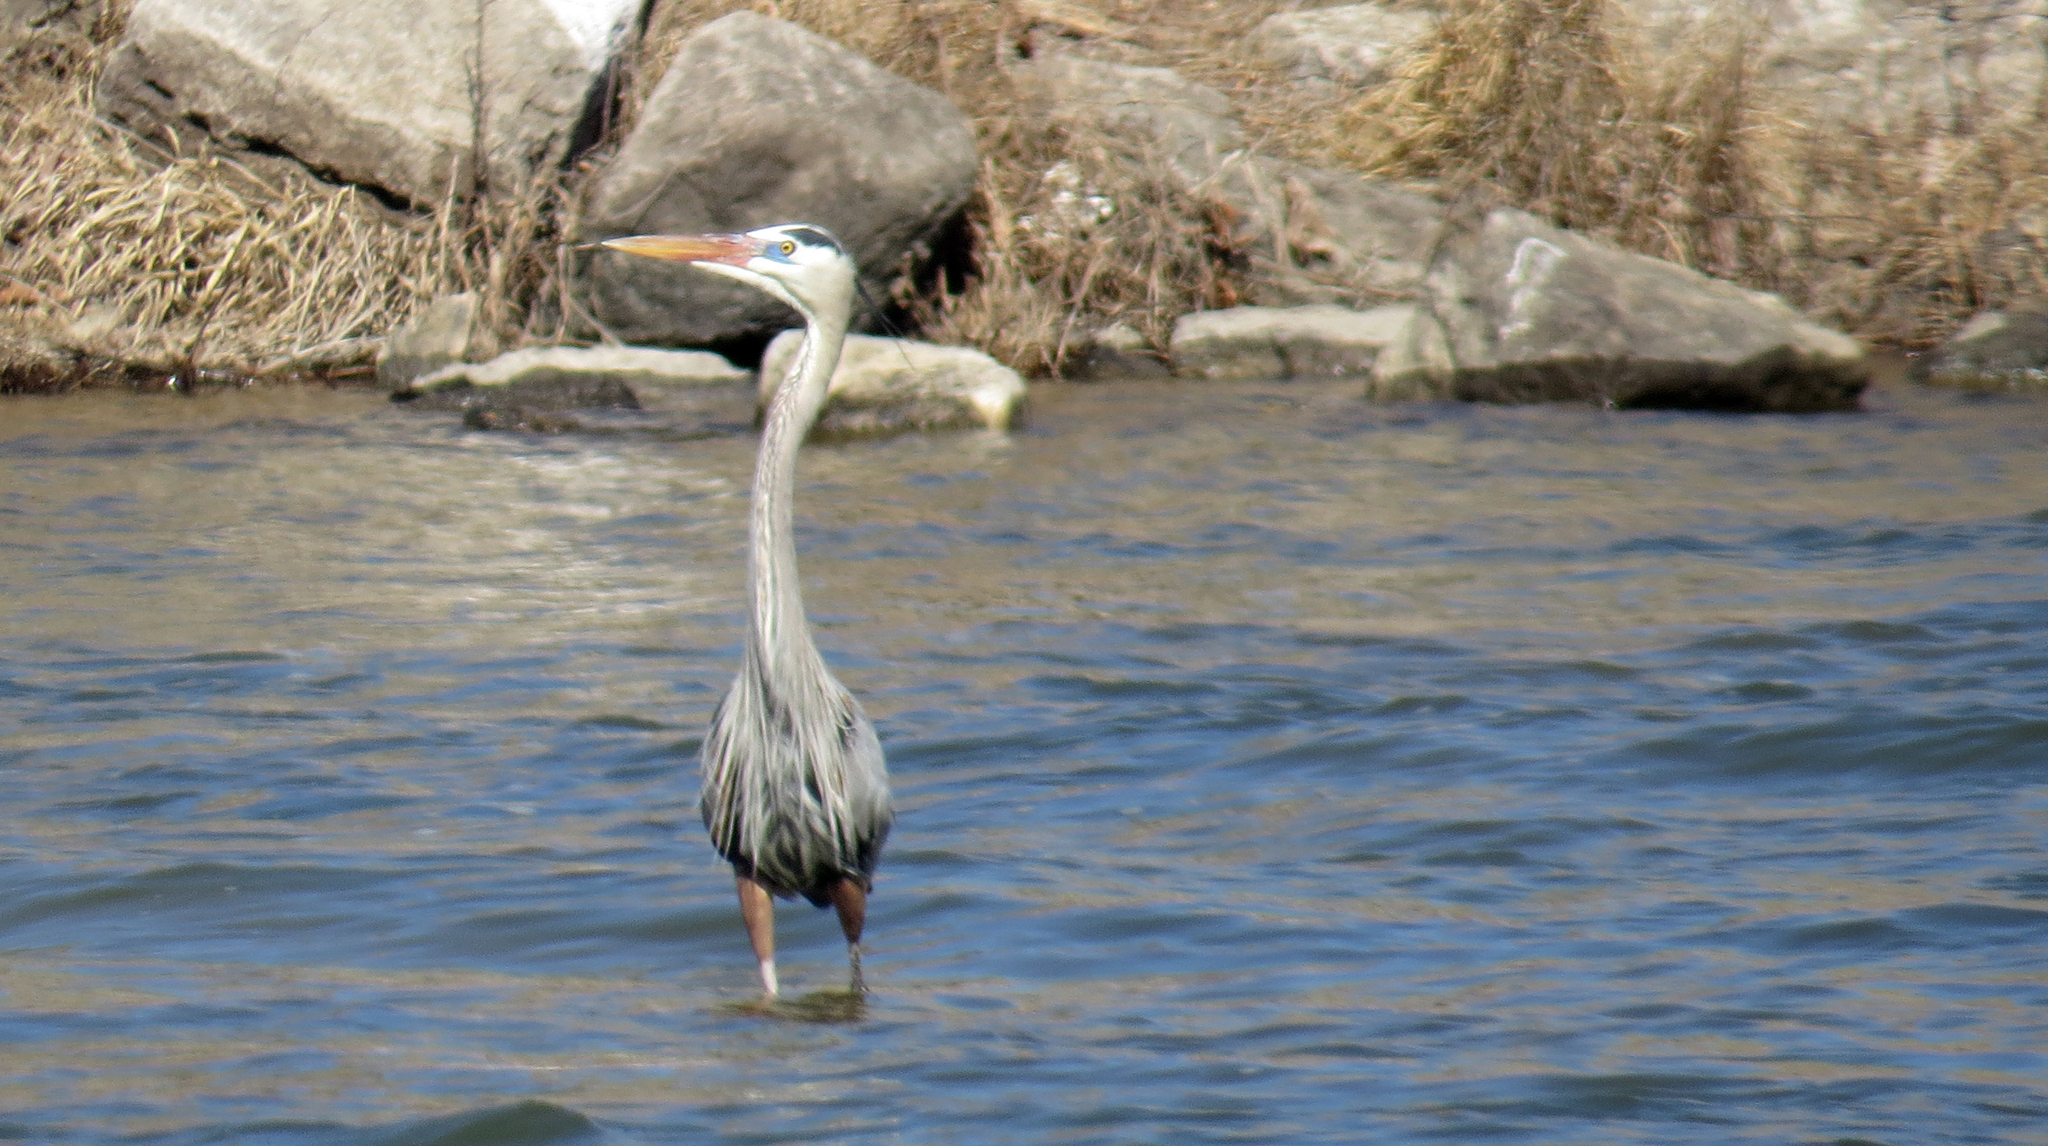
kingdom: Animalia
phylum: Chordata
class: Aves
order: Pelecaniformes
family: Ardeidae
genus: Ardea
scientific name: Ardea herodias
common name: Great blue heron
